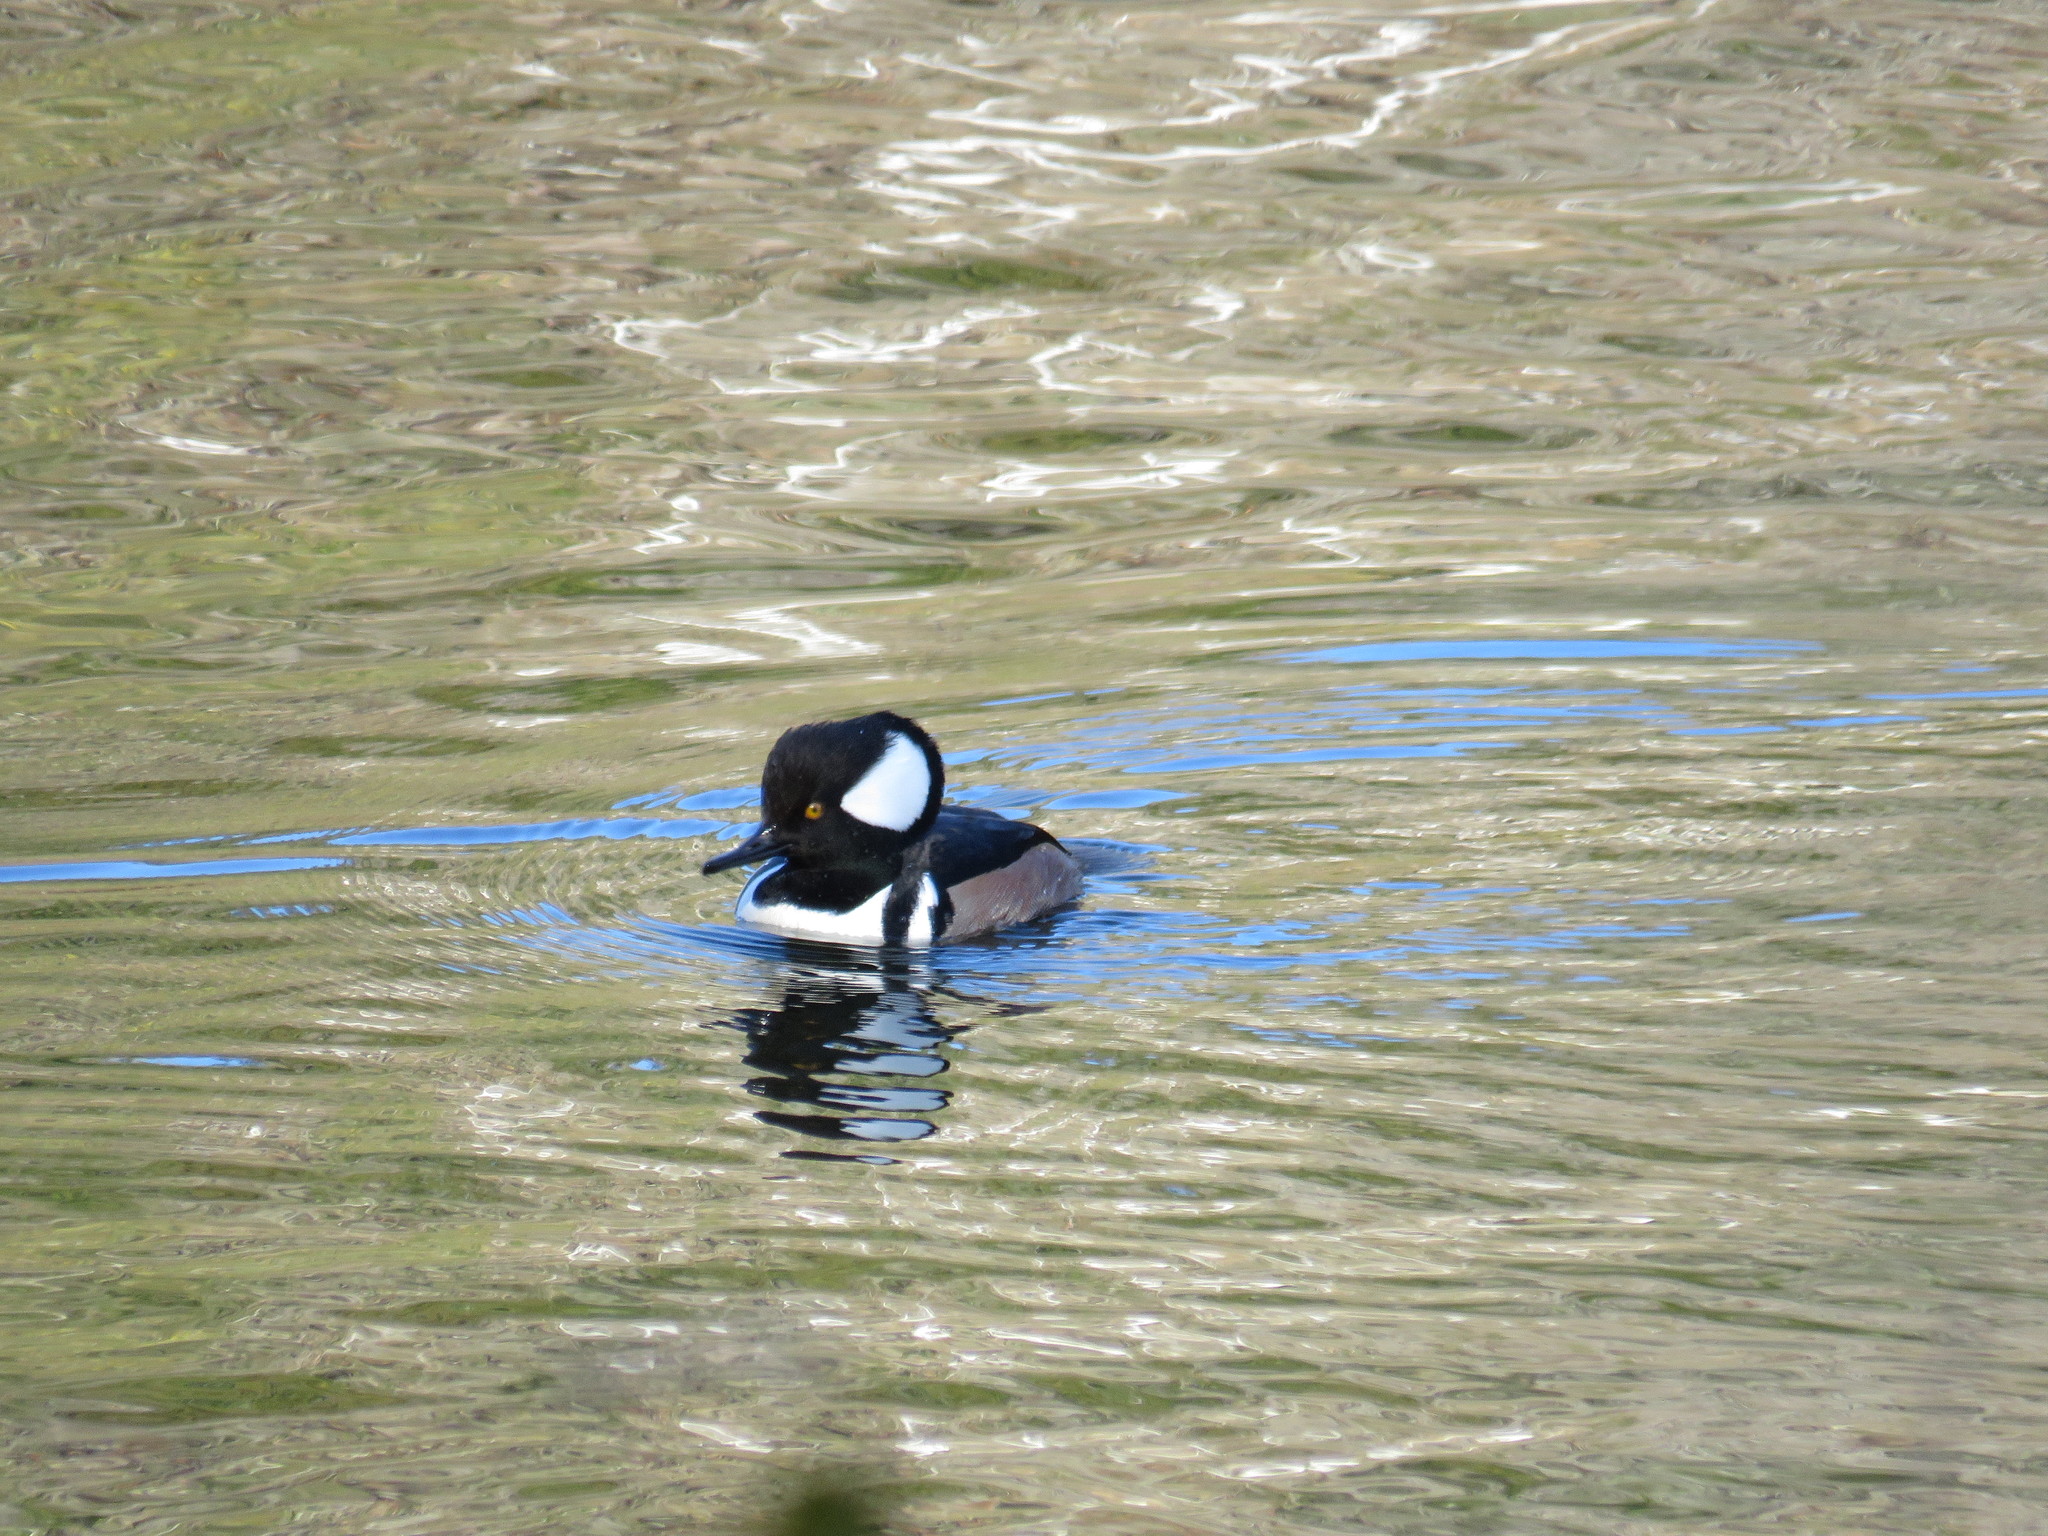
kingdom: Animalia
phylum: Chordata
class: Aves
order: Anseriformes
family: Anatidae
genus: Lophodytes
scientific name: Lophodytes cucullatus
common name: Hooded merganser
